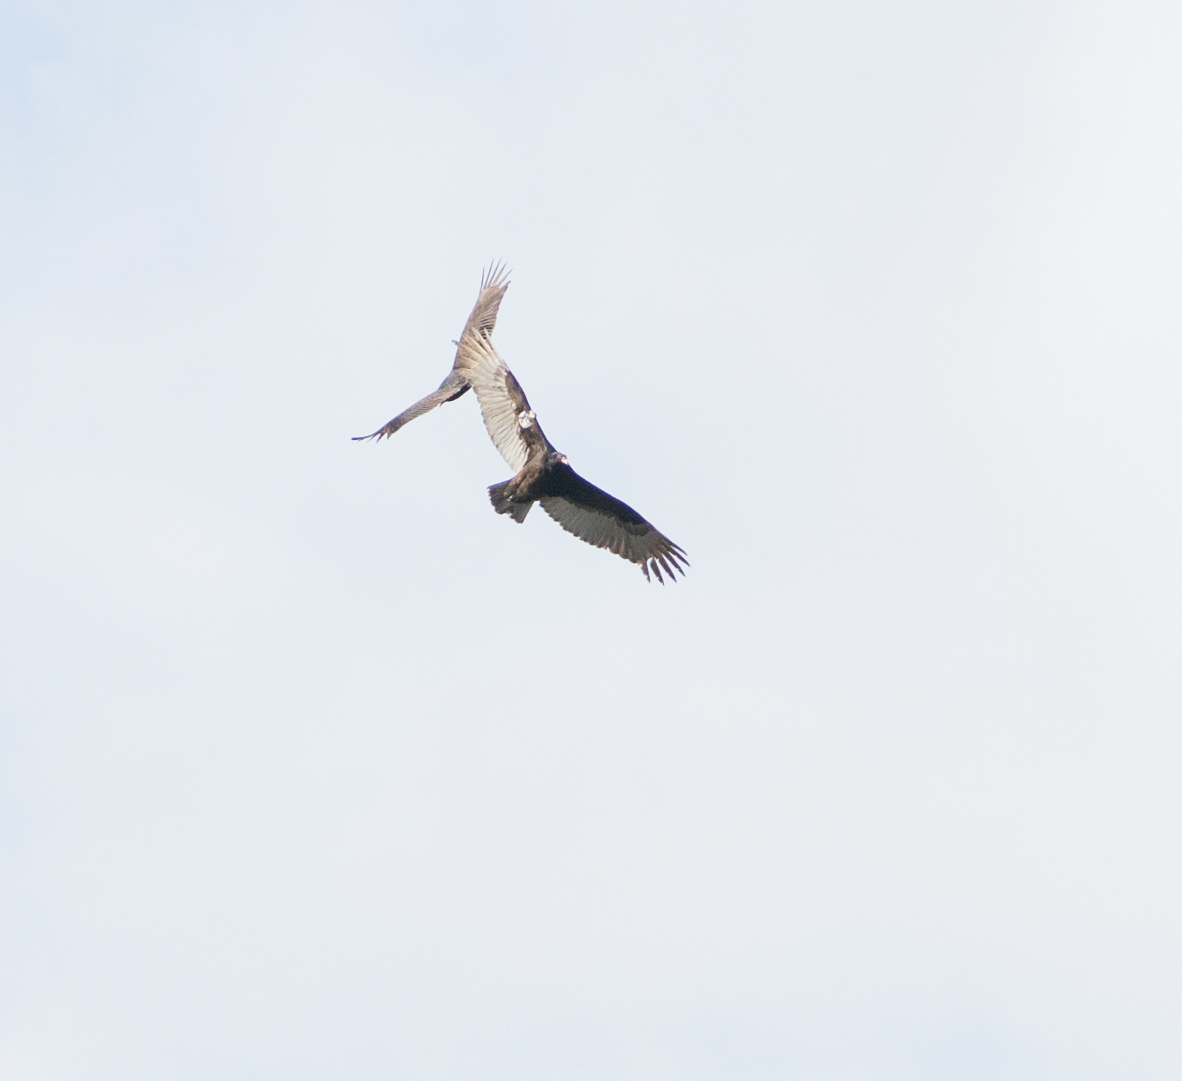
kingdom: Animalia
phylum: Chordata
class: Aves
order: Accipitriformes
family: Cathartidae
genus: Cathartes
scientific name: Cathartes aura
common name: Turkey vulture
